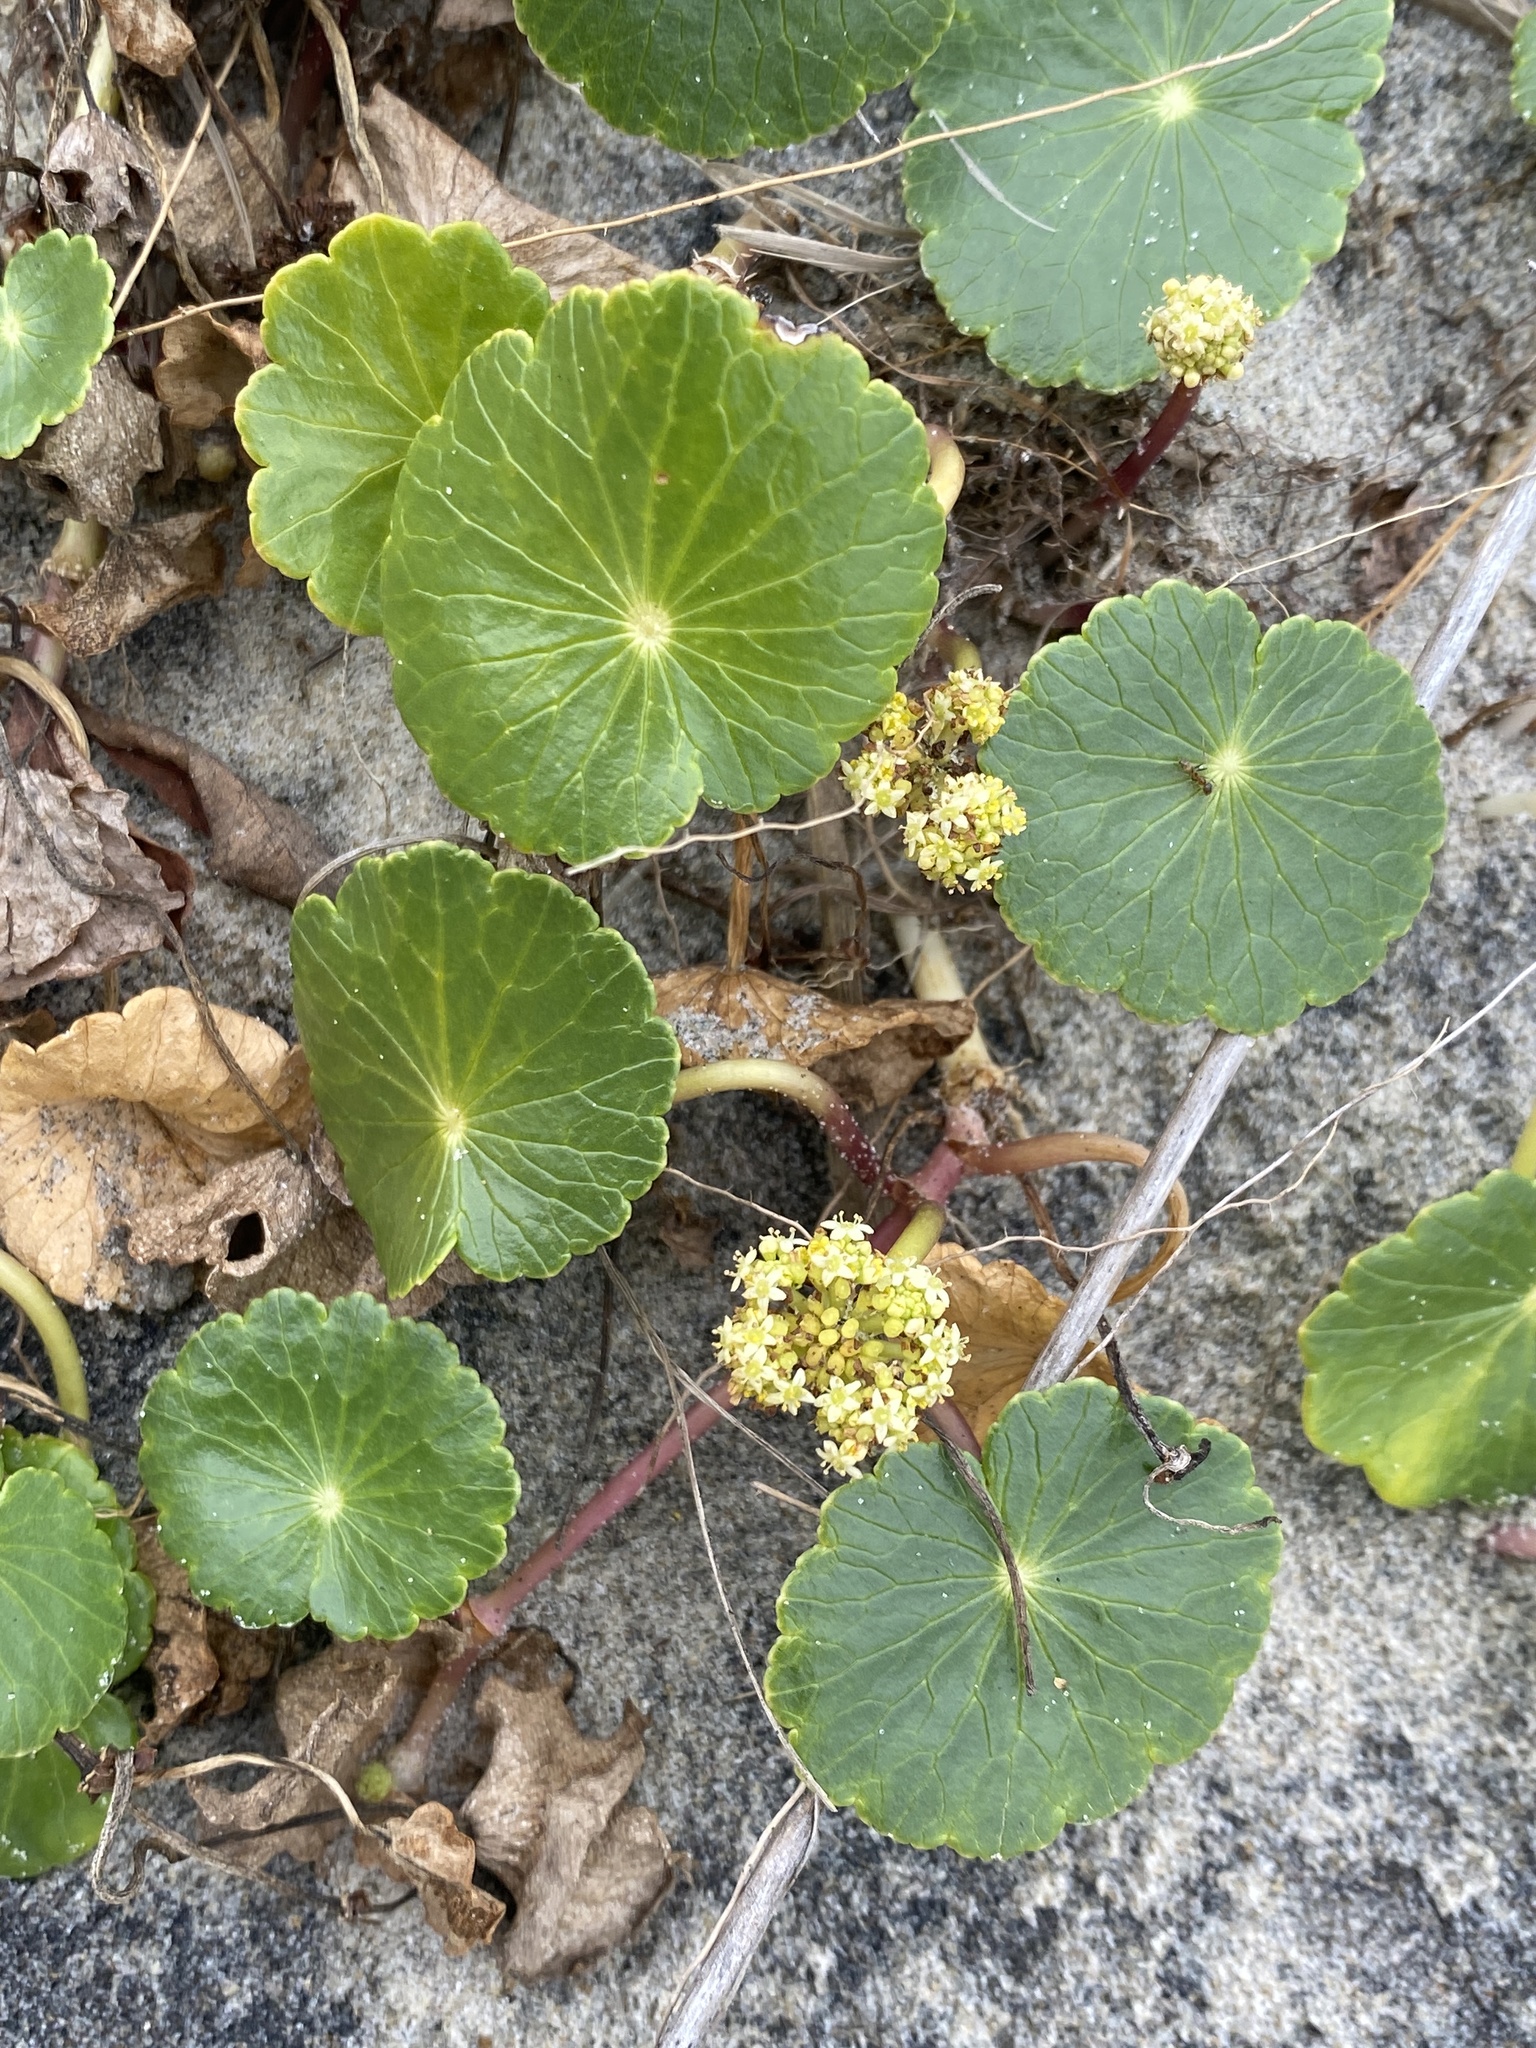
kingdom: Plantae
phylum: Tracheophyta
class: Magnoliopsida
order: Apiales
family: Araliaceae
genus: Hydrocotyle
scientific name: Hydrocotyle bonariensis
